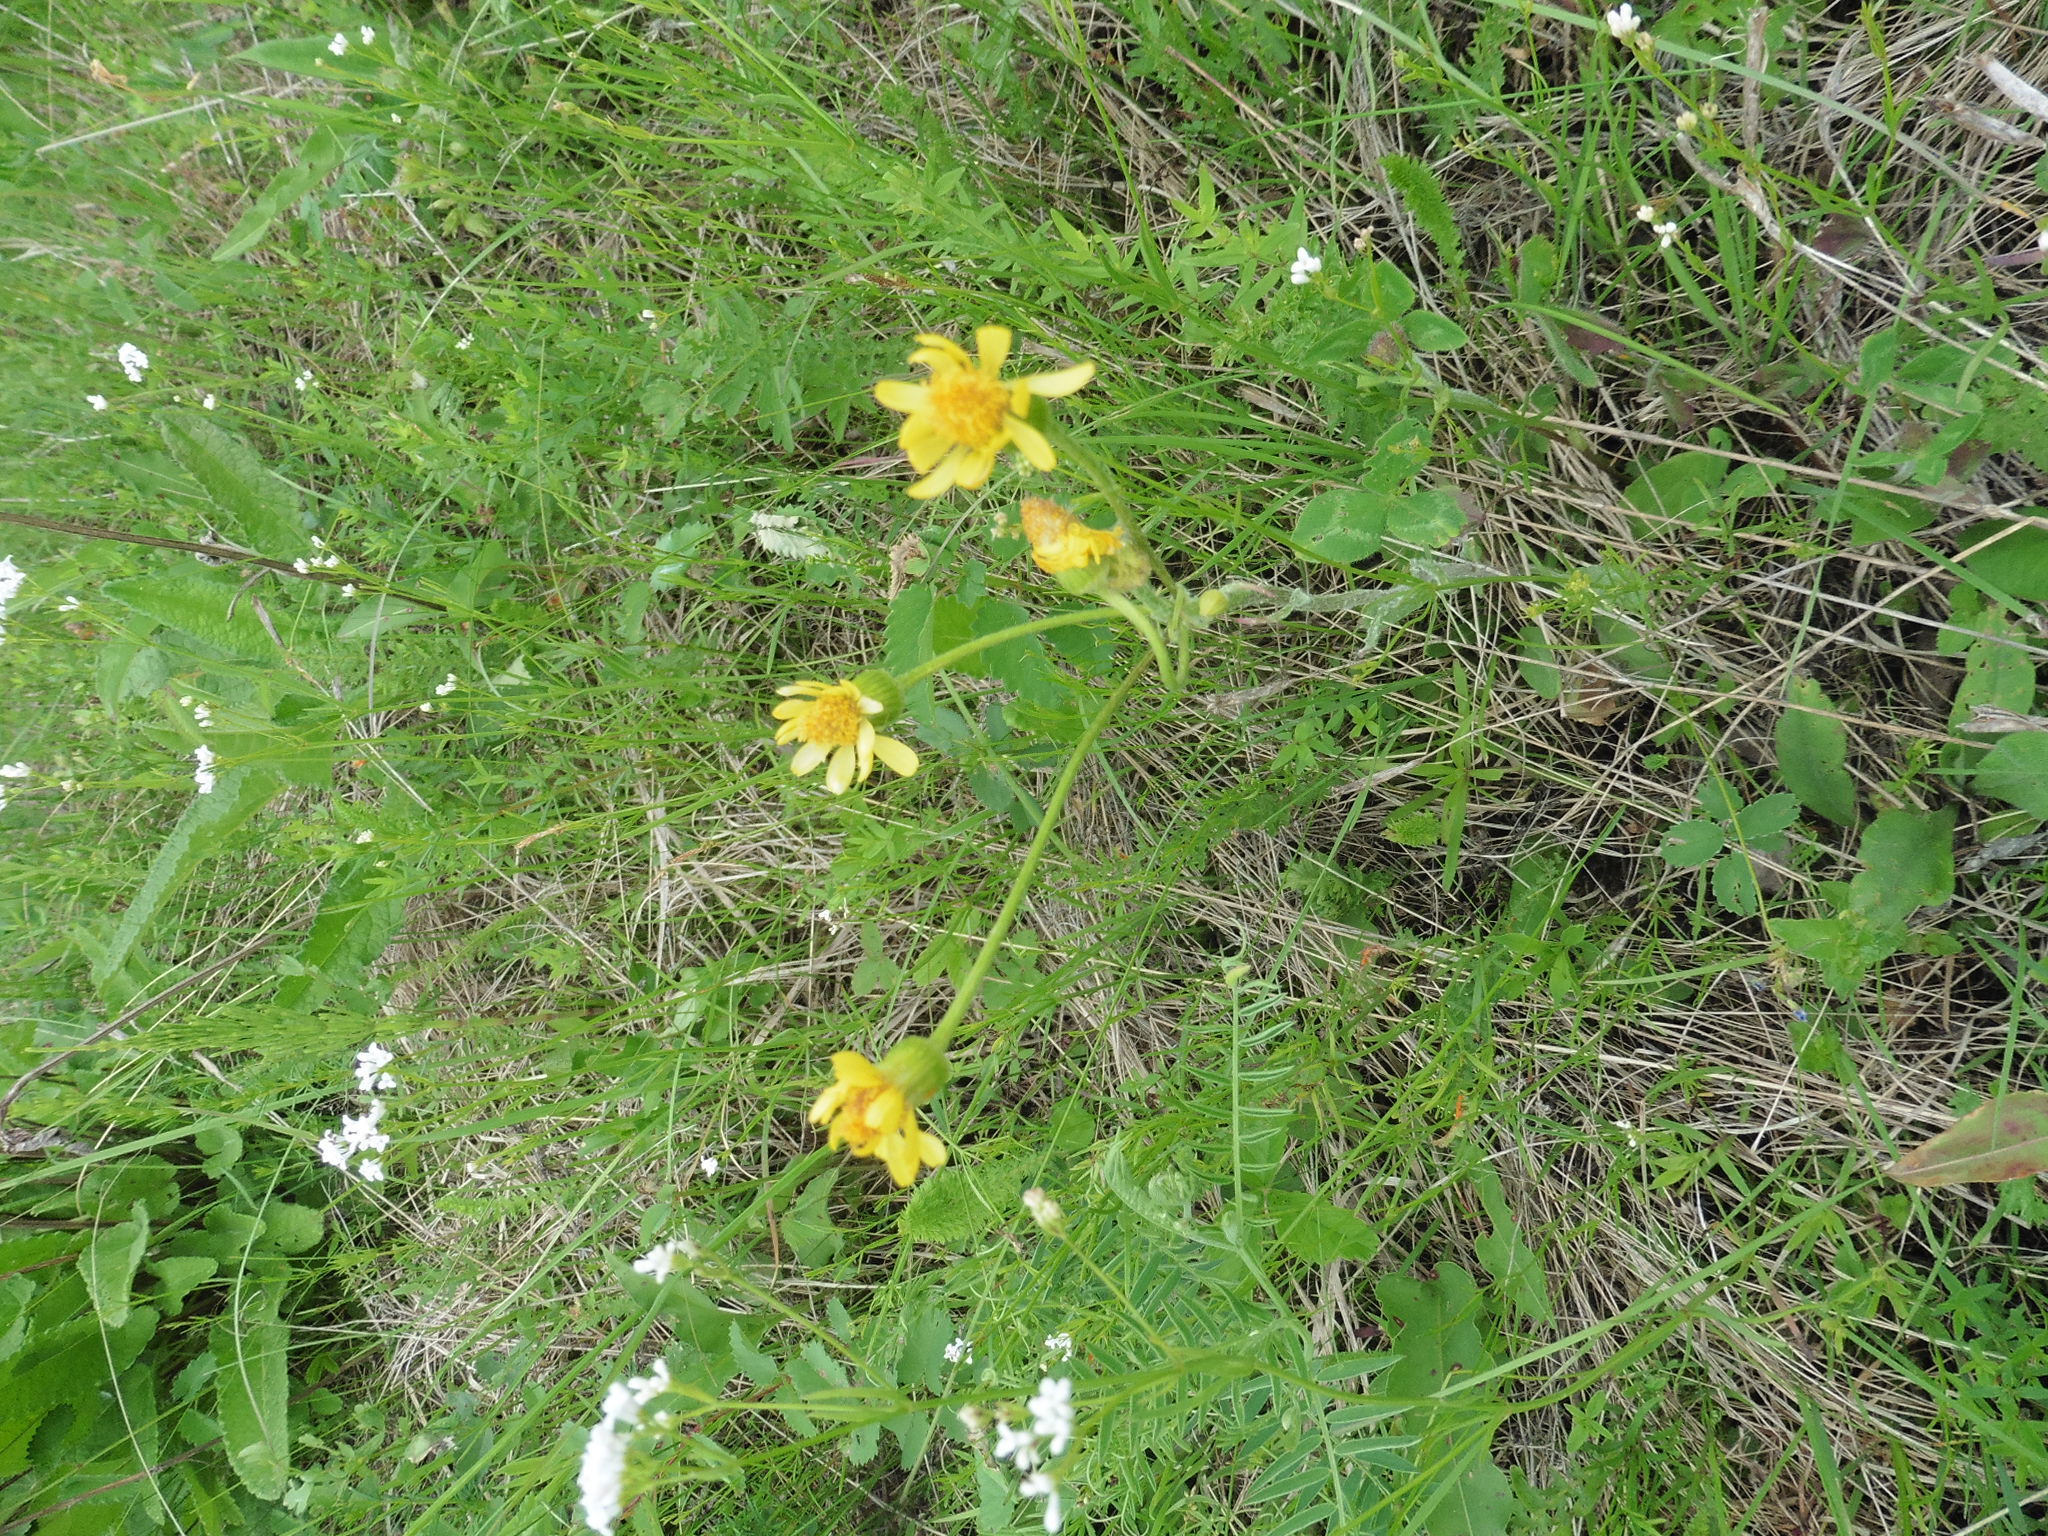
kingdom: Plantae
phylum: Tracheophyta
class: Magnoliopsida
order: Asterales
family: Asteraceae
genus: Tephroseris
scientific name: Tephroseris integrifolia
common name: Field fleawort
